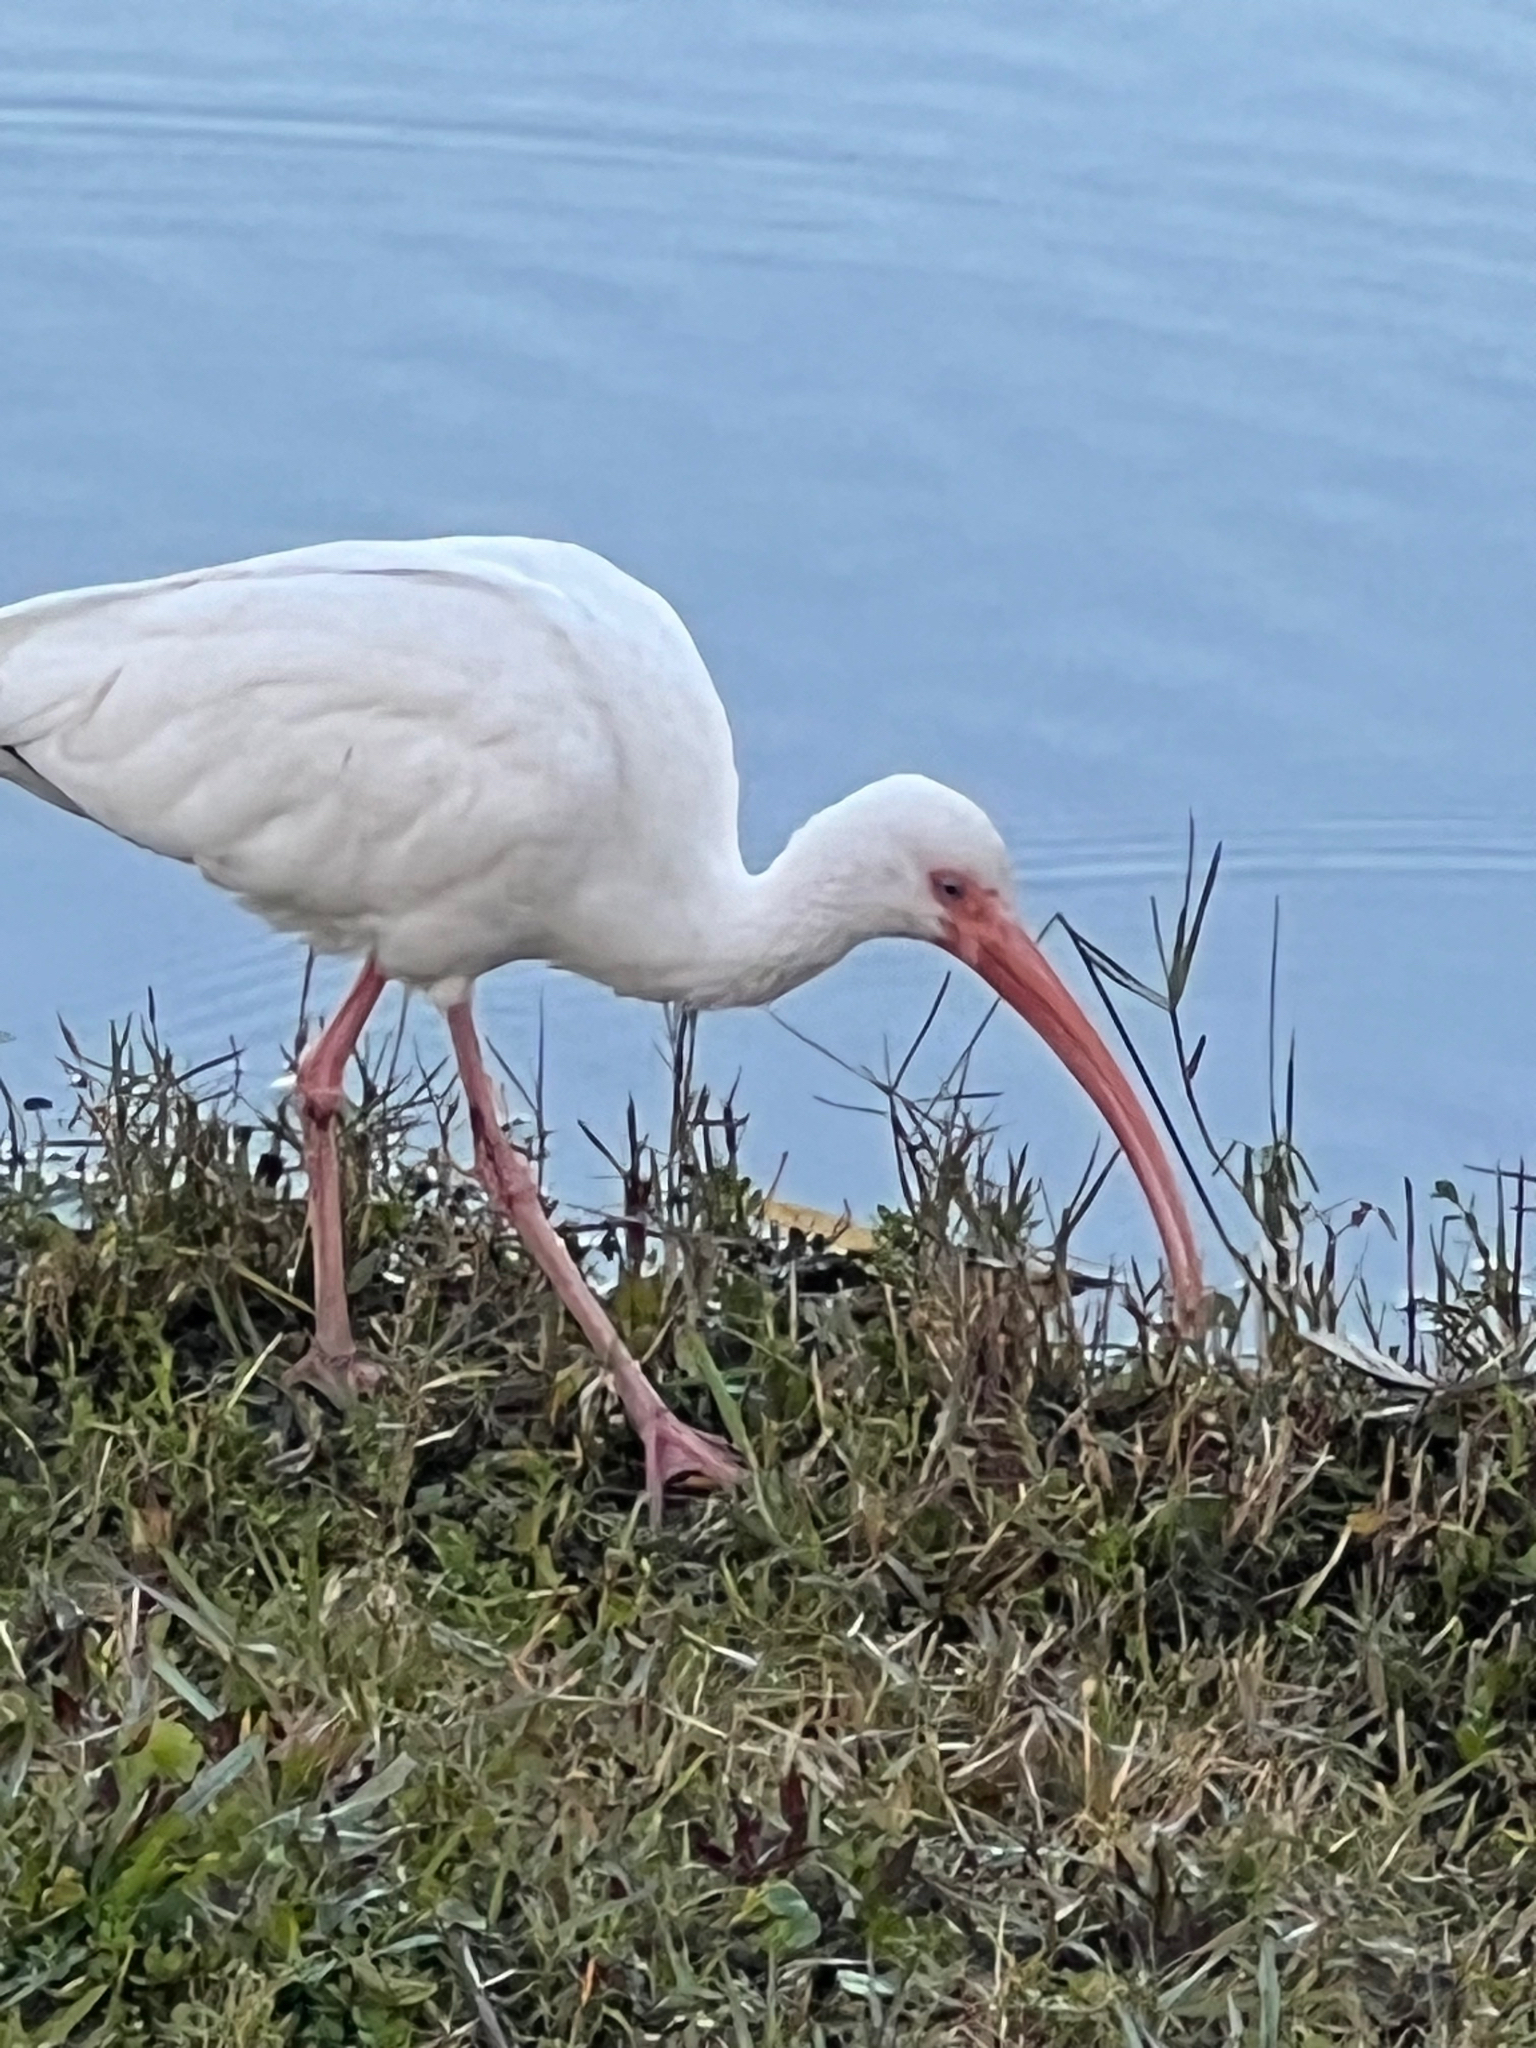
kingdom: Animalia
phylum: Chordata
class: Aves
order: Pelecaniformes
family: Threskiornithidae
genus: Eudocimus
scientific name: Eudocimus albus
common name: White ibis
